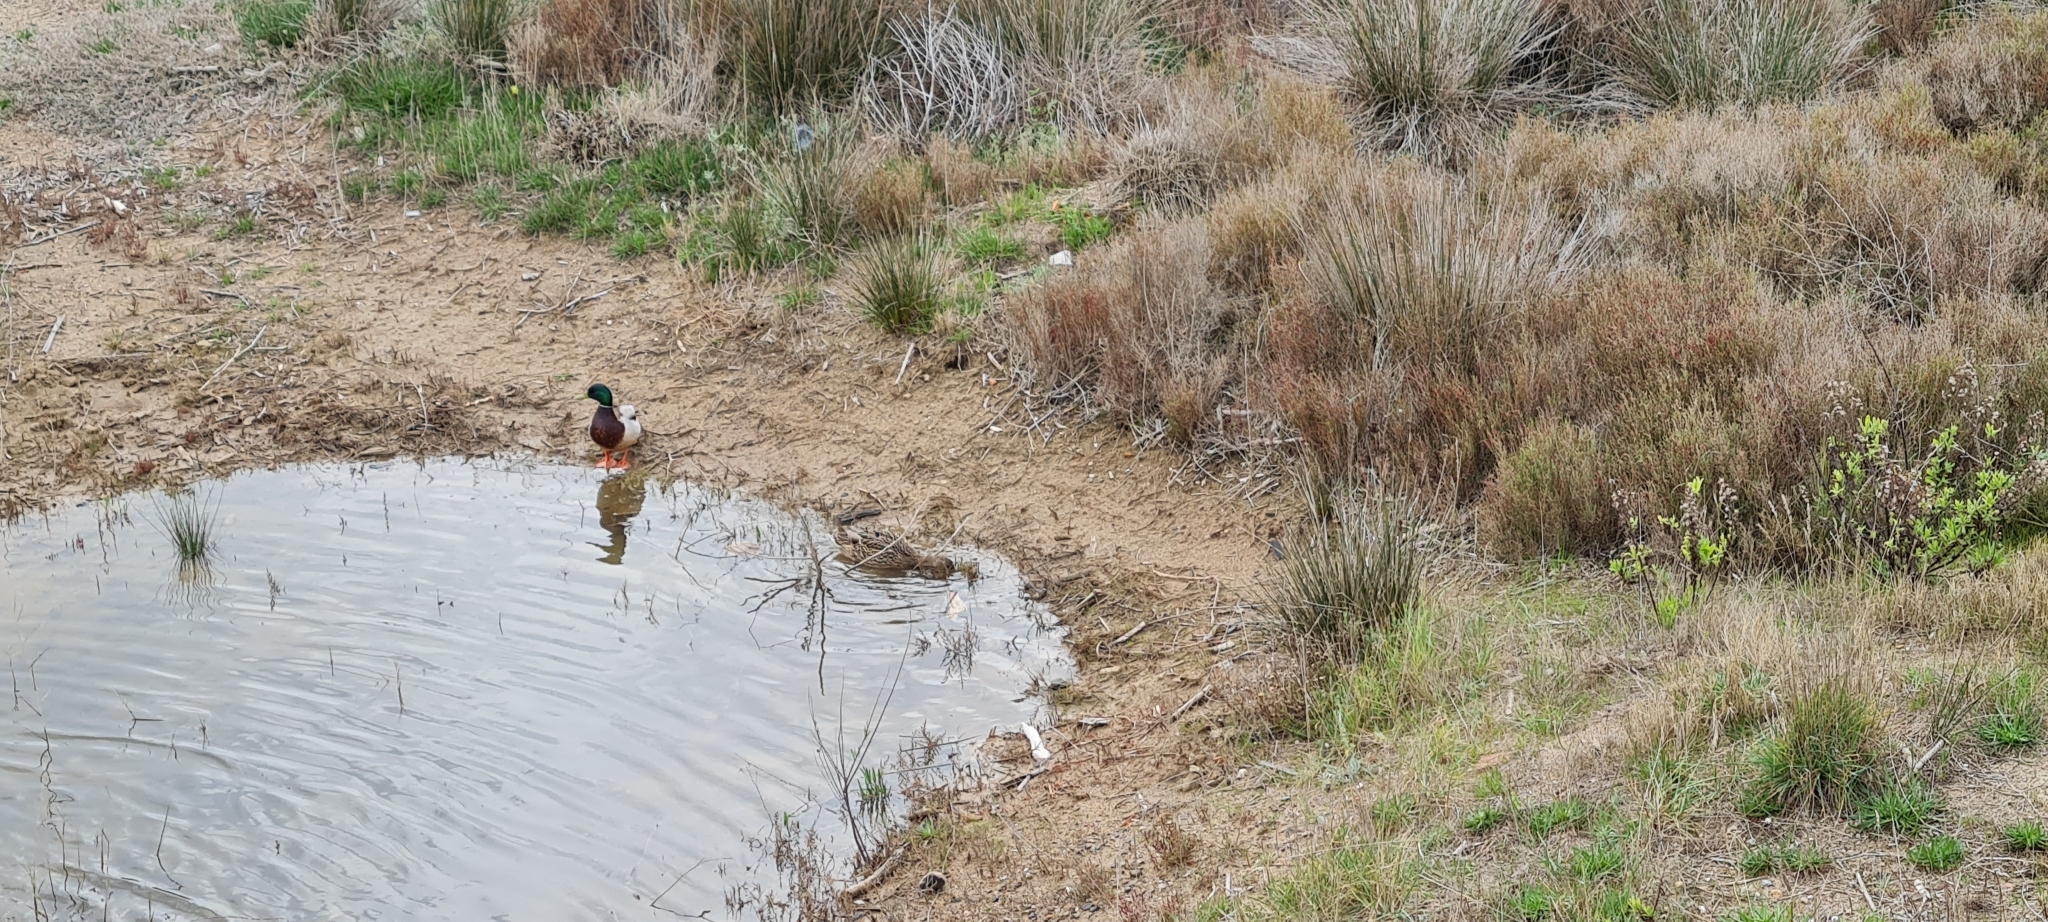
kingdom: Animalia
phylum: Chordata
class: Aves
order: Anseriformes
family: Anatidae
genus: Anas
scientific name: Anas platyrhynchos
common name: Mallard
